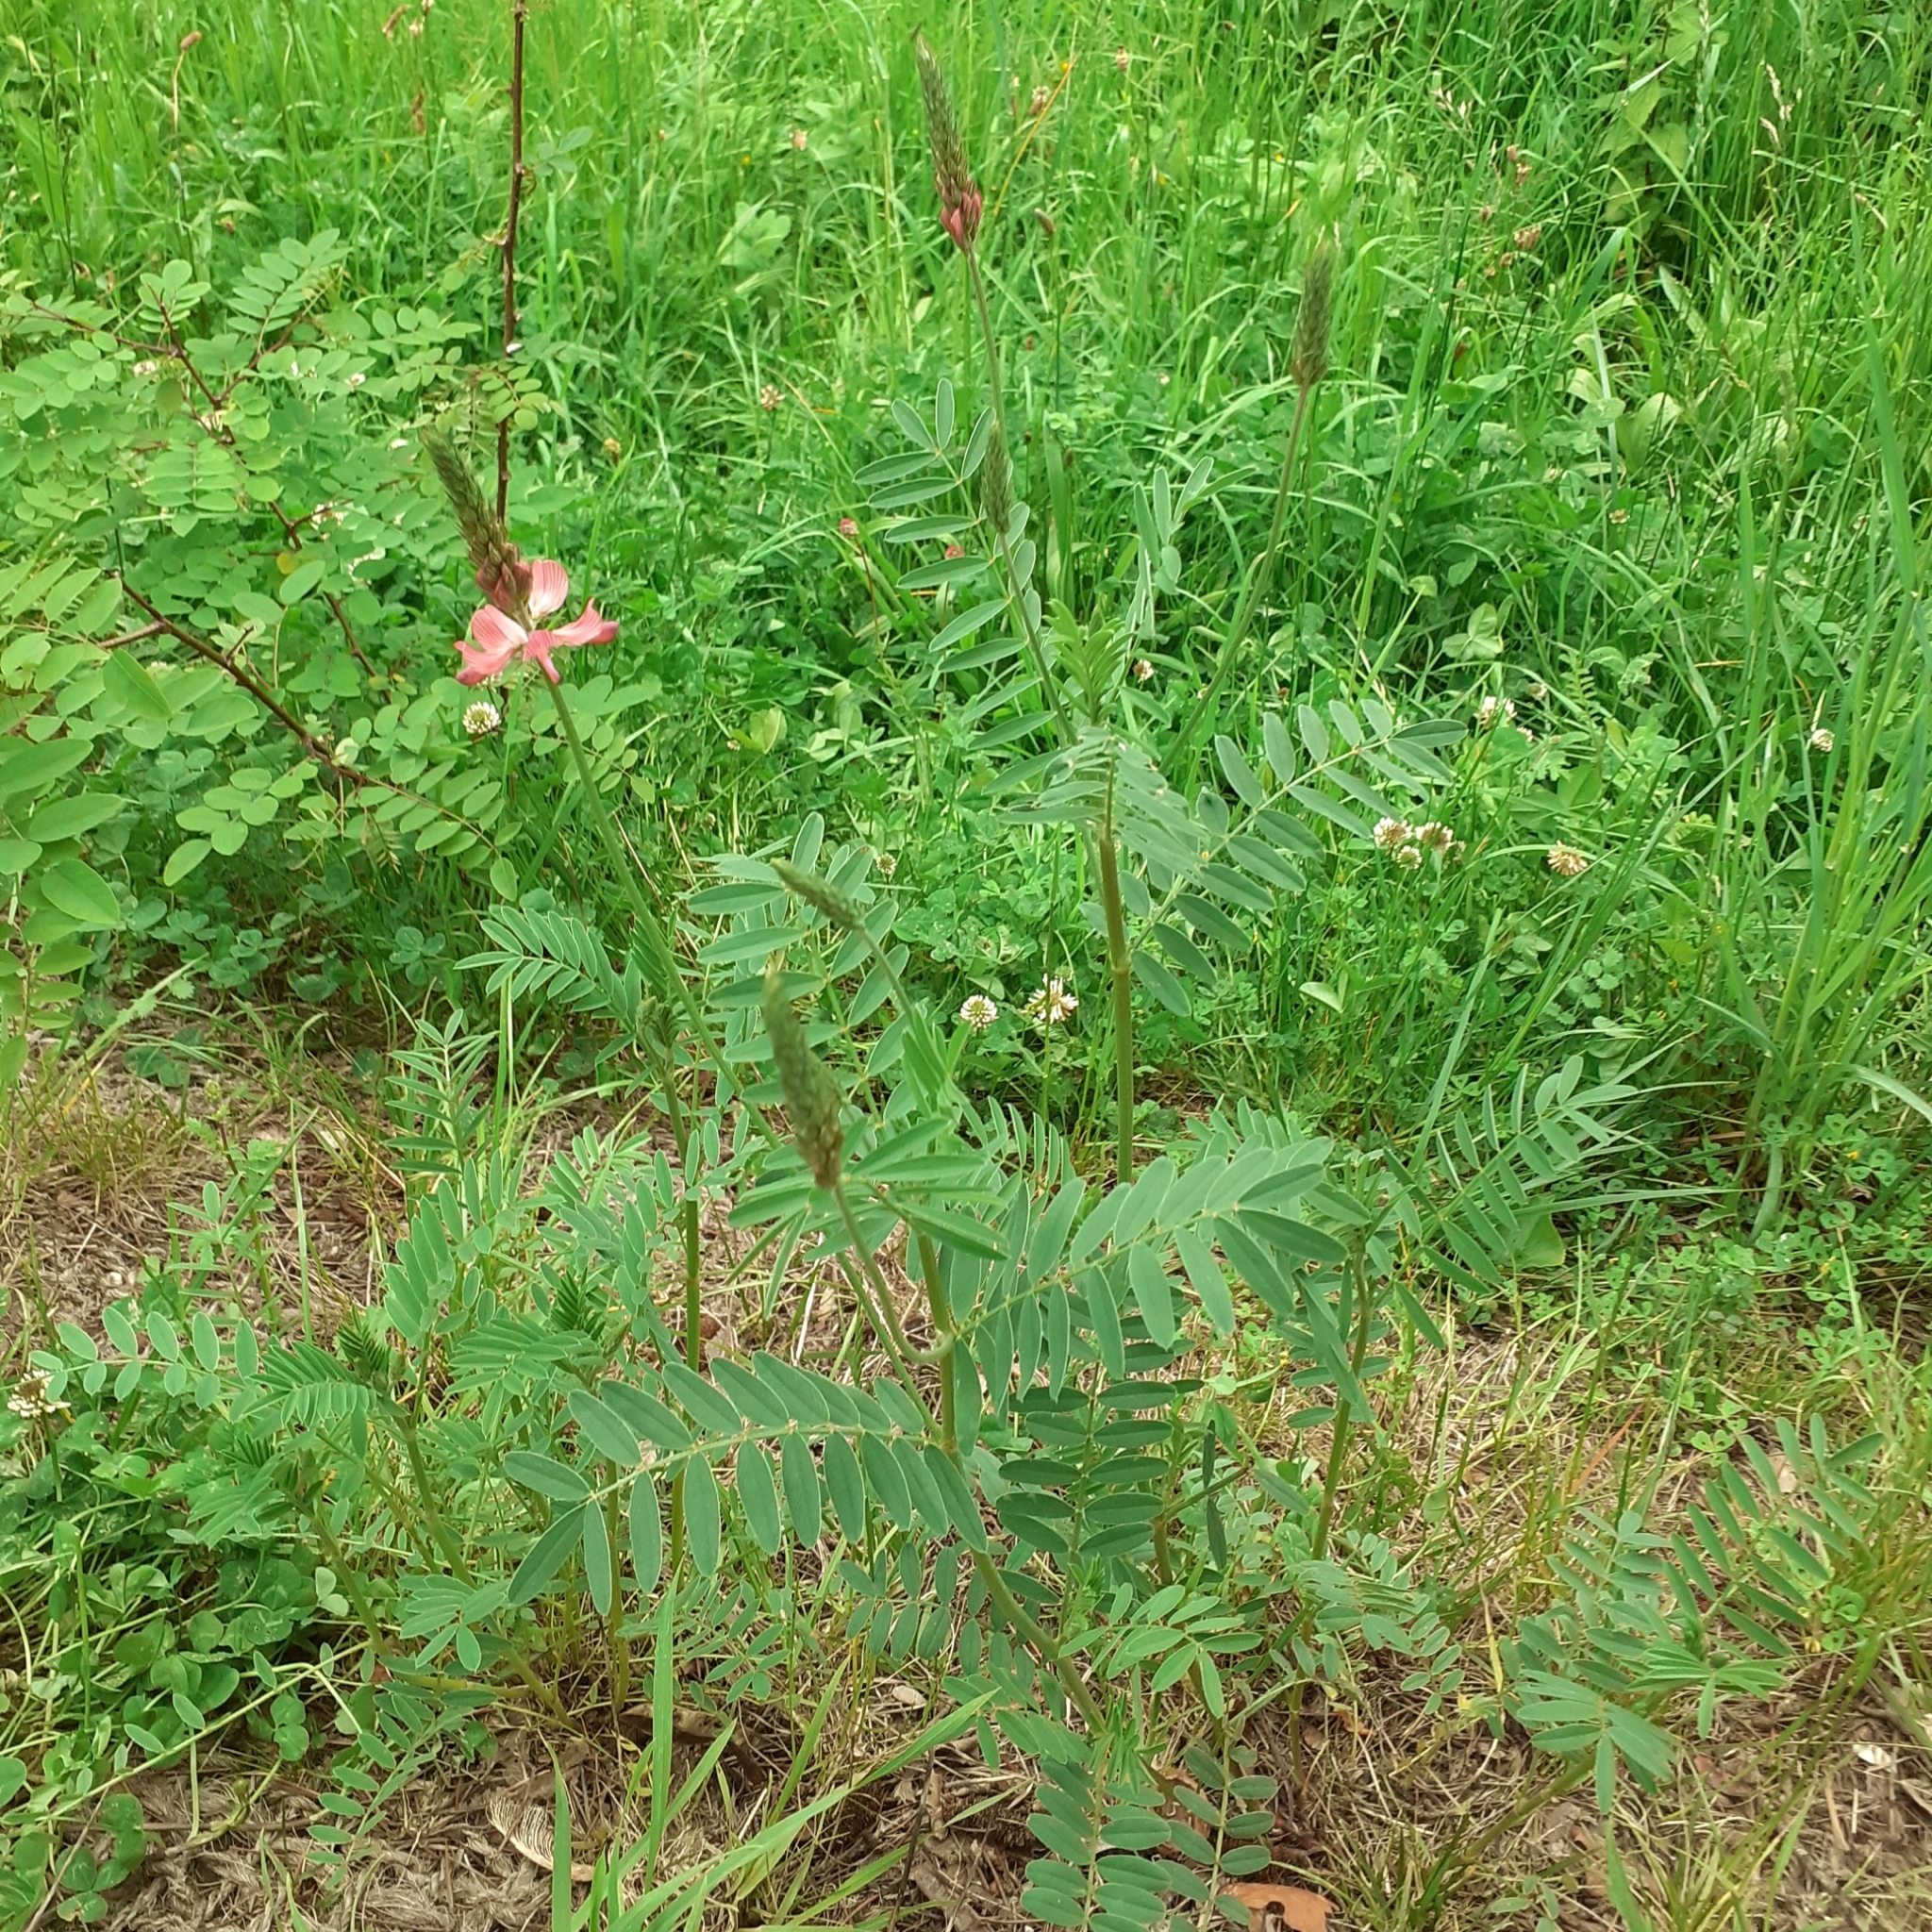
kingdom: Plantae
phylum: Tracheophyta
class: Magnoliopsida
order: Fabales
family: Fabaceae
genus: Onobrychis
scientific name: Onobrychis viciifolia
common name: Sainfoin
